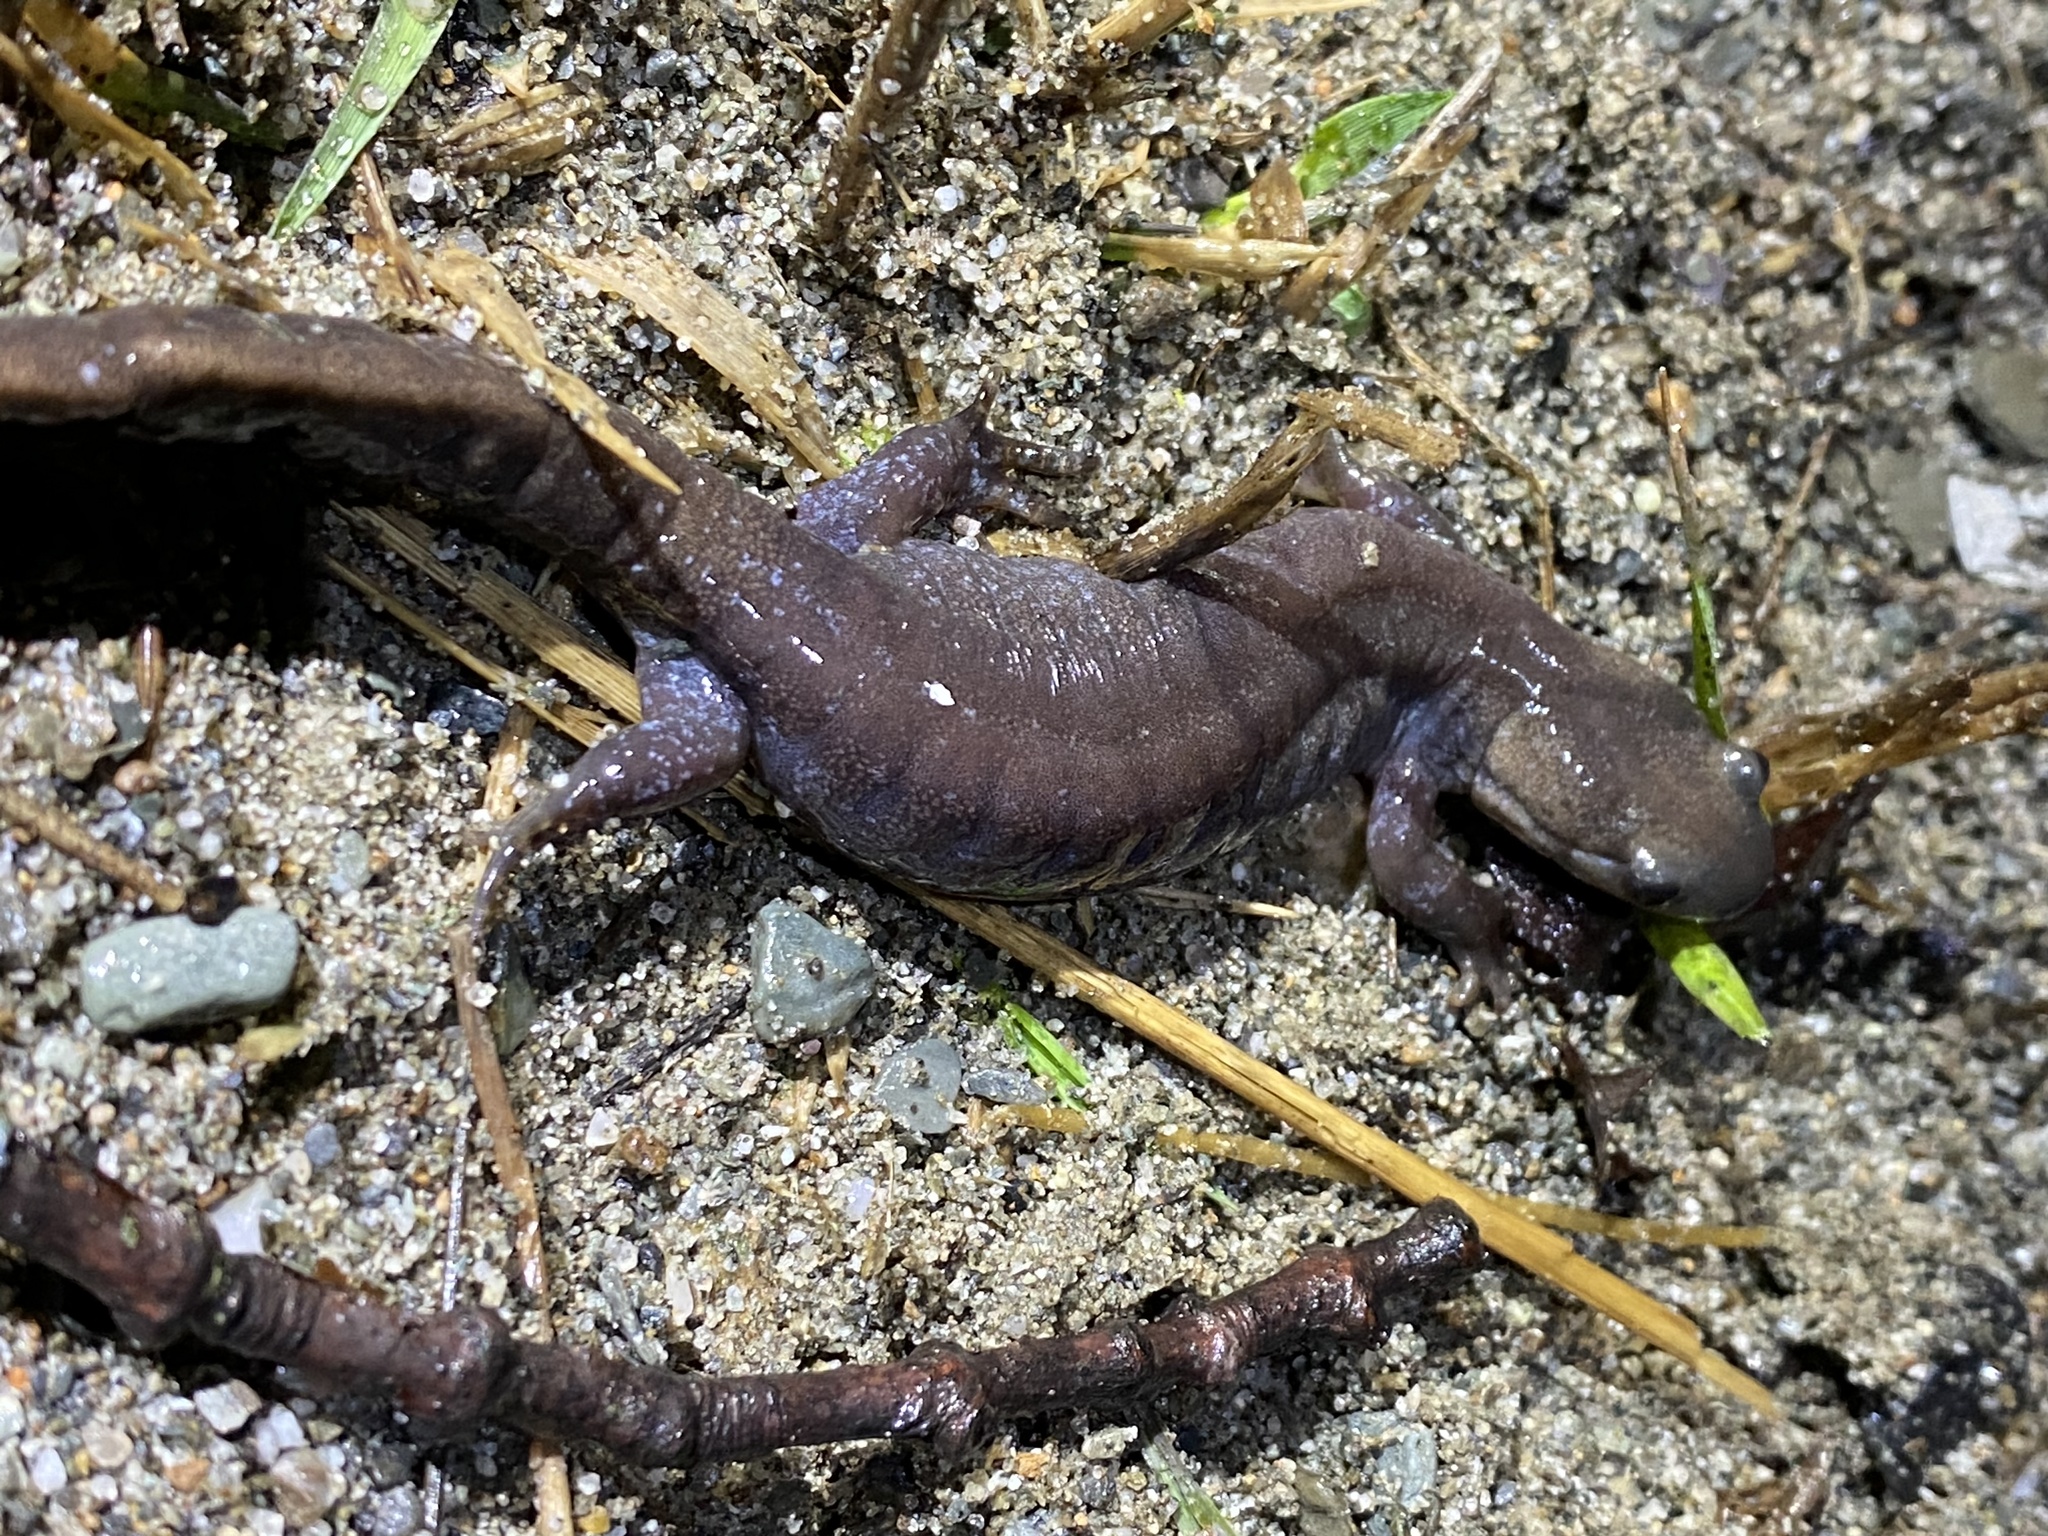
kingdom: Animalia
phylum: Chordata
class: Amphibia
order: Caudata
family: Ambystomatidae
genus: Ambystoma
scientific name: Ambystoma unisexual
